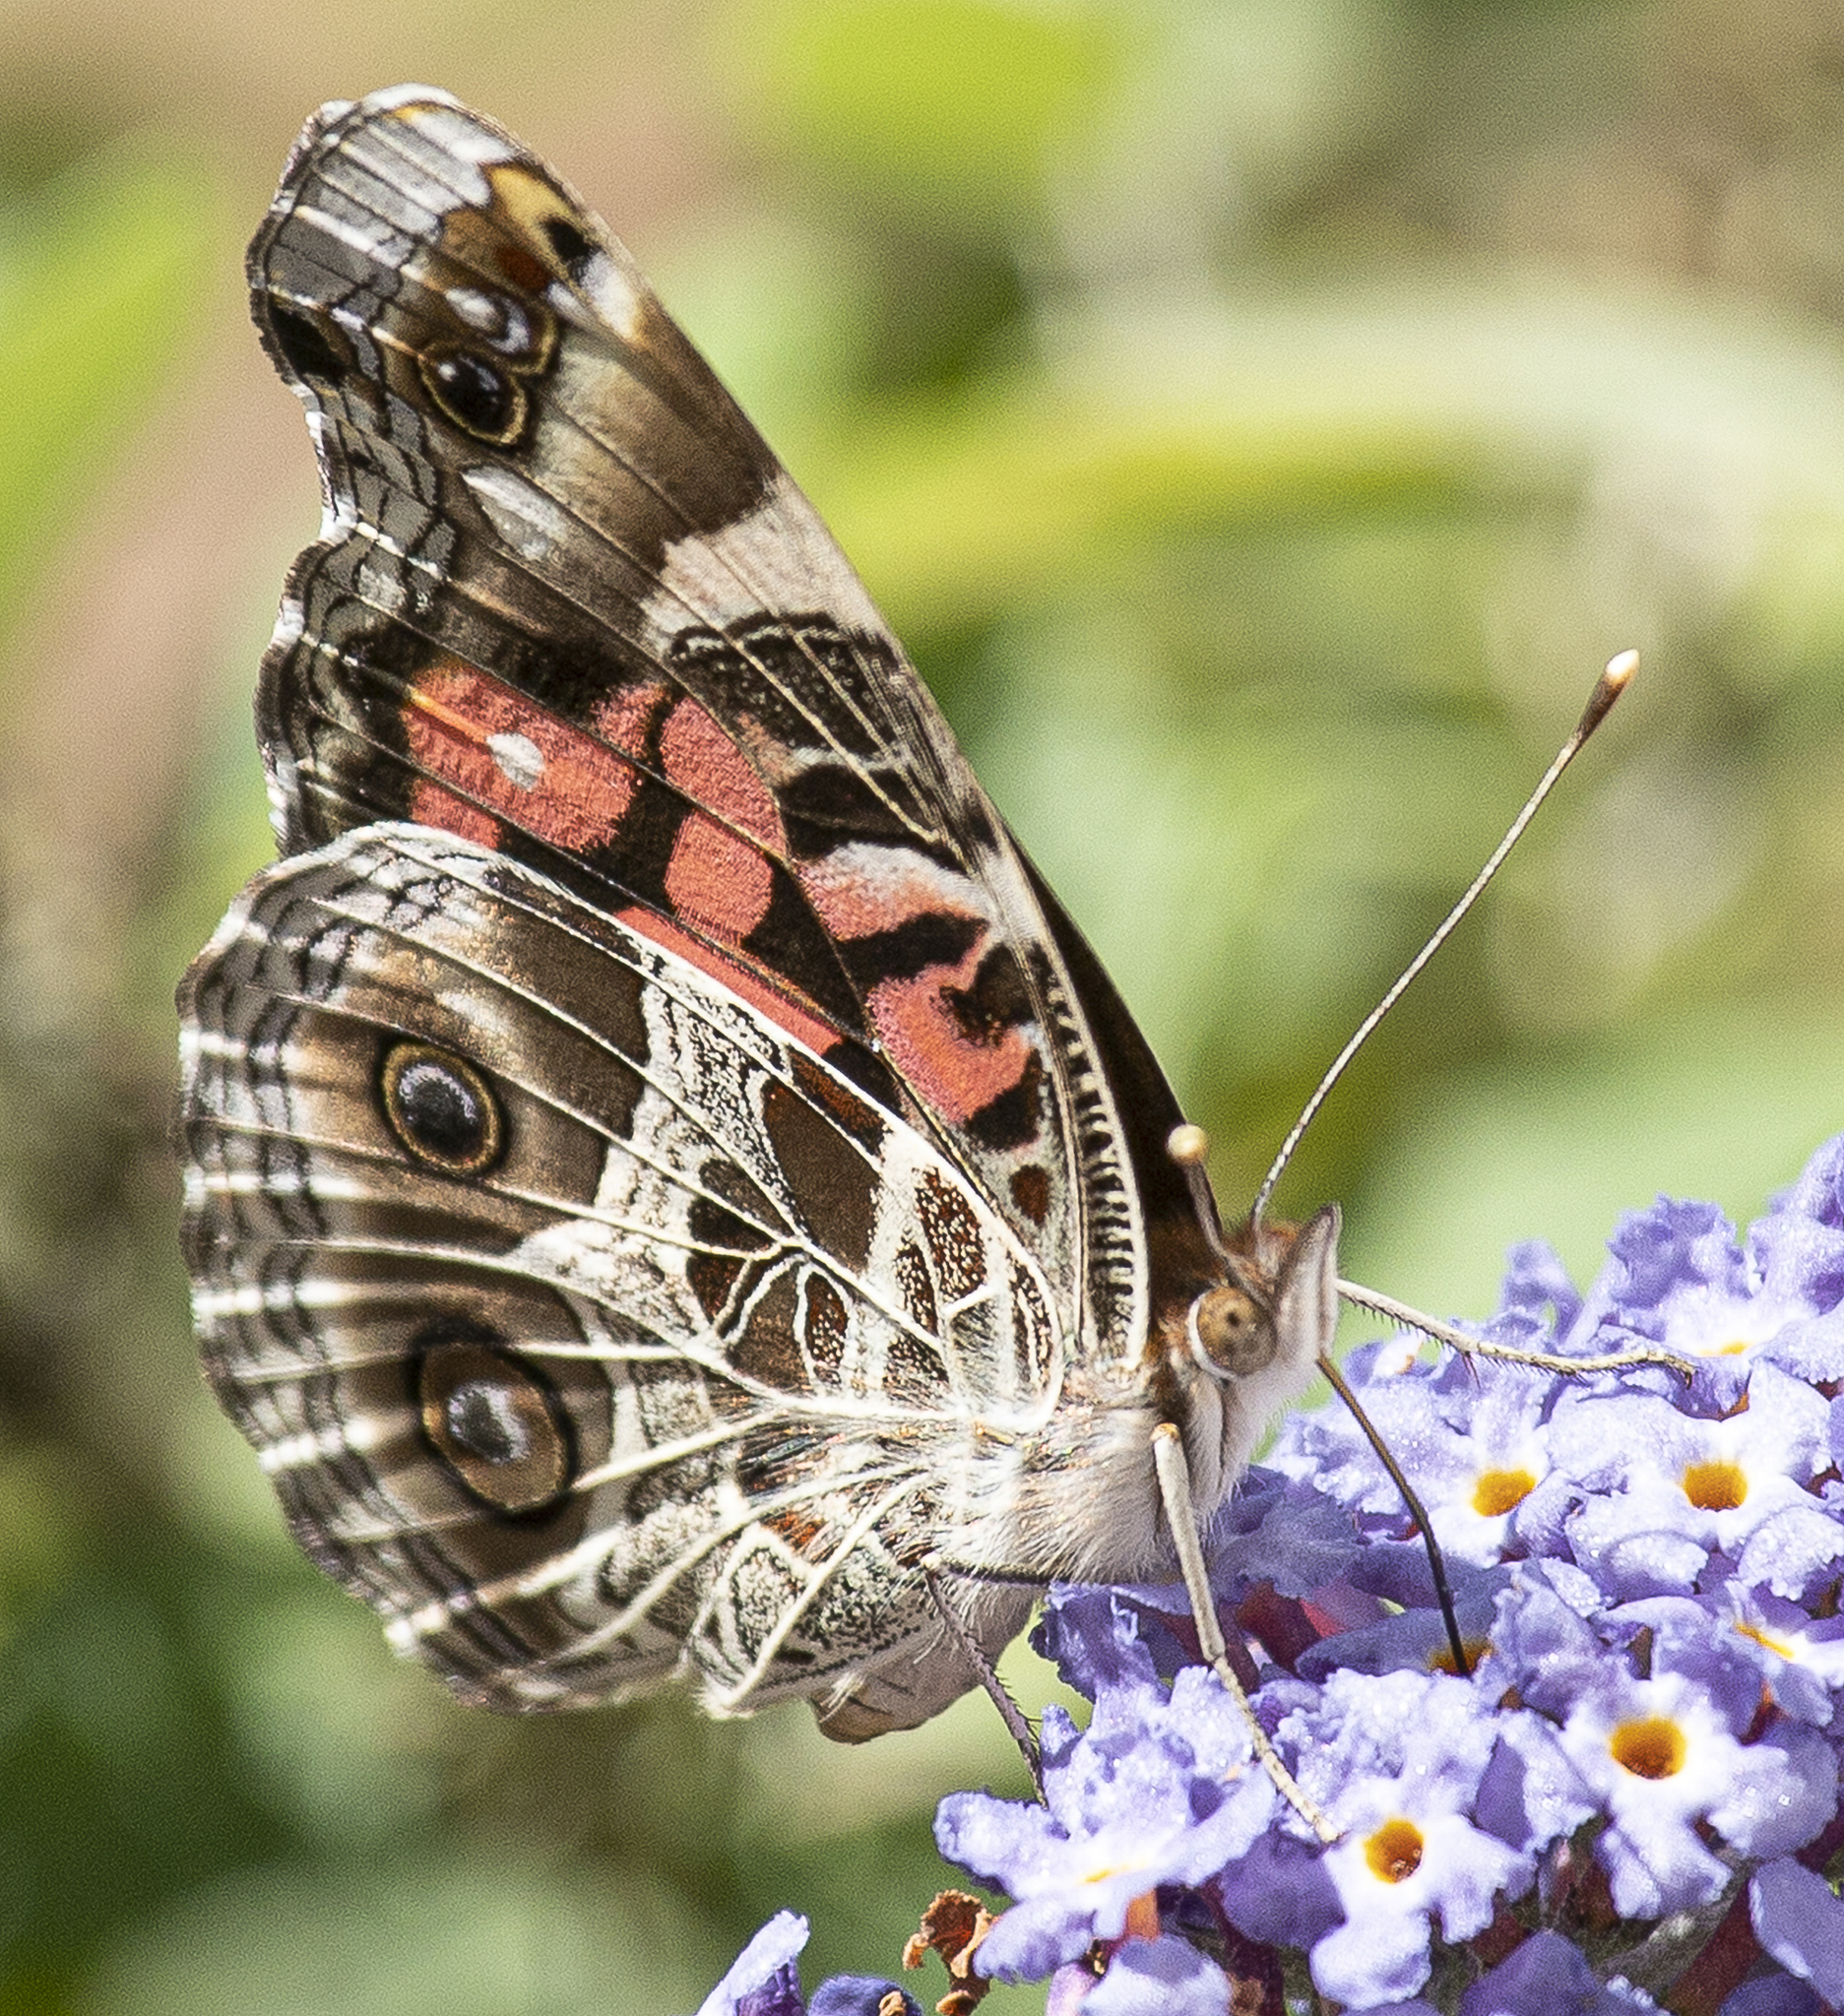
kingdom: Animalia
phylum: Arthropoda
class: Insecta
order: Lepidoptera
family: Nymphalidae
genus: Vanessa
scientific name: Vanessa virginiensis
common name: American lady
